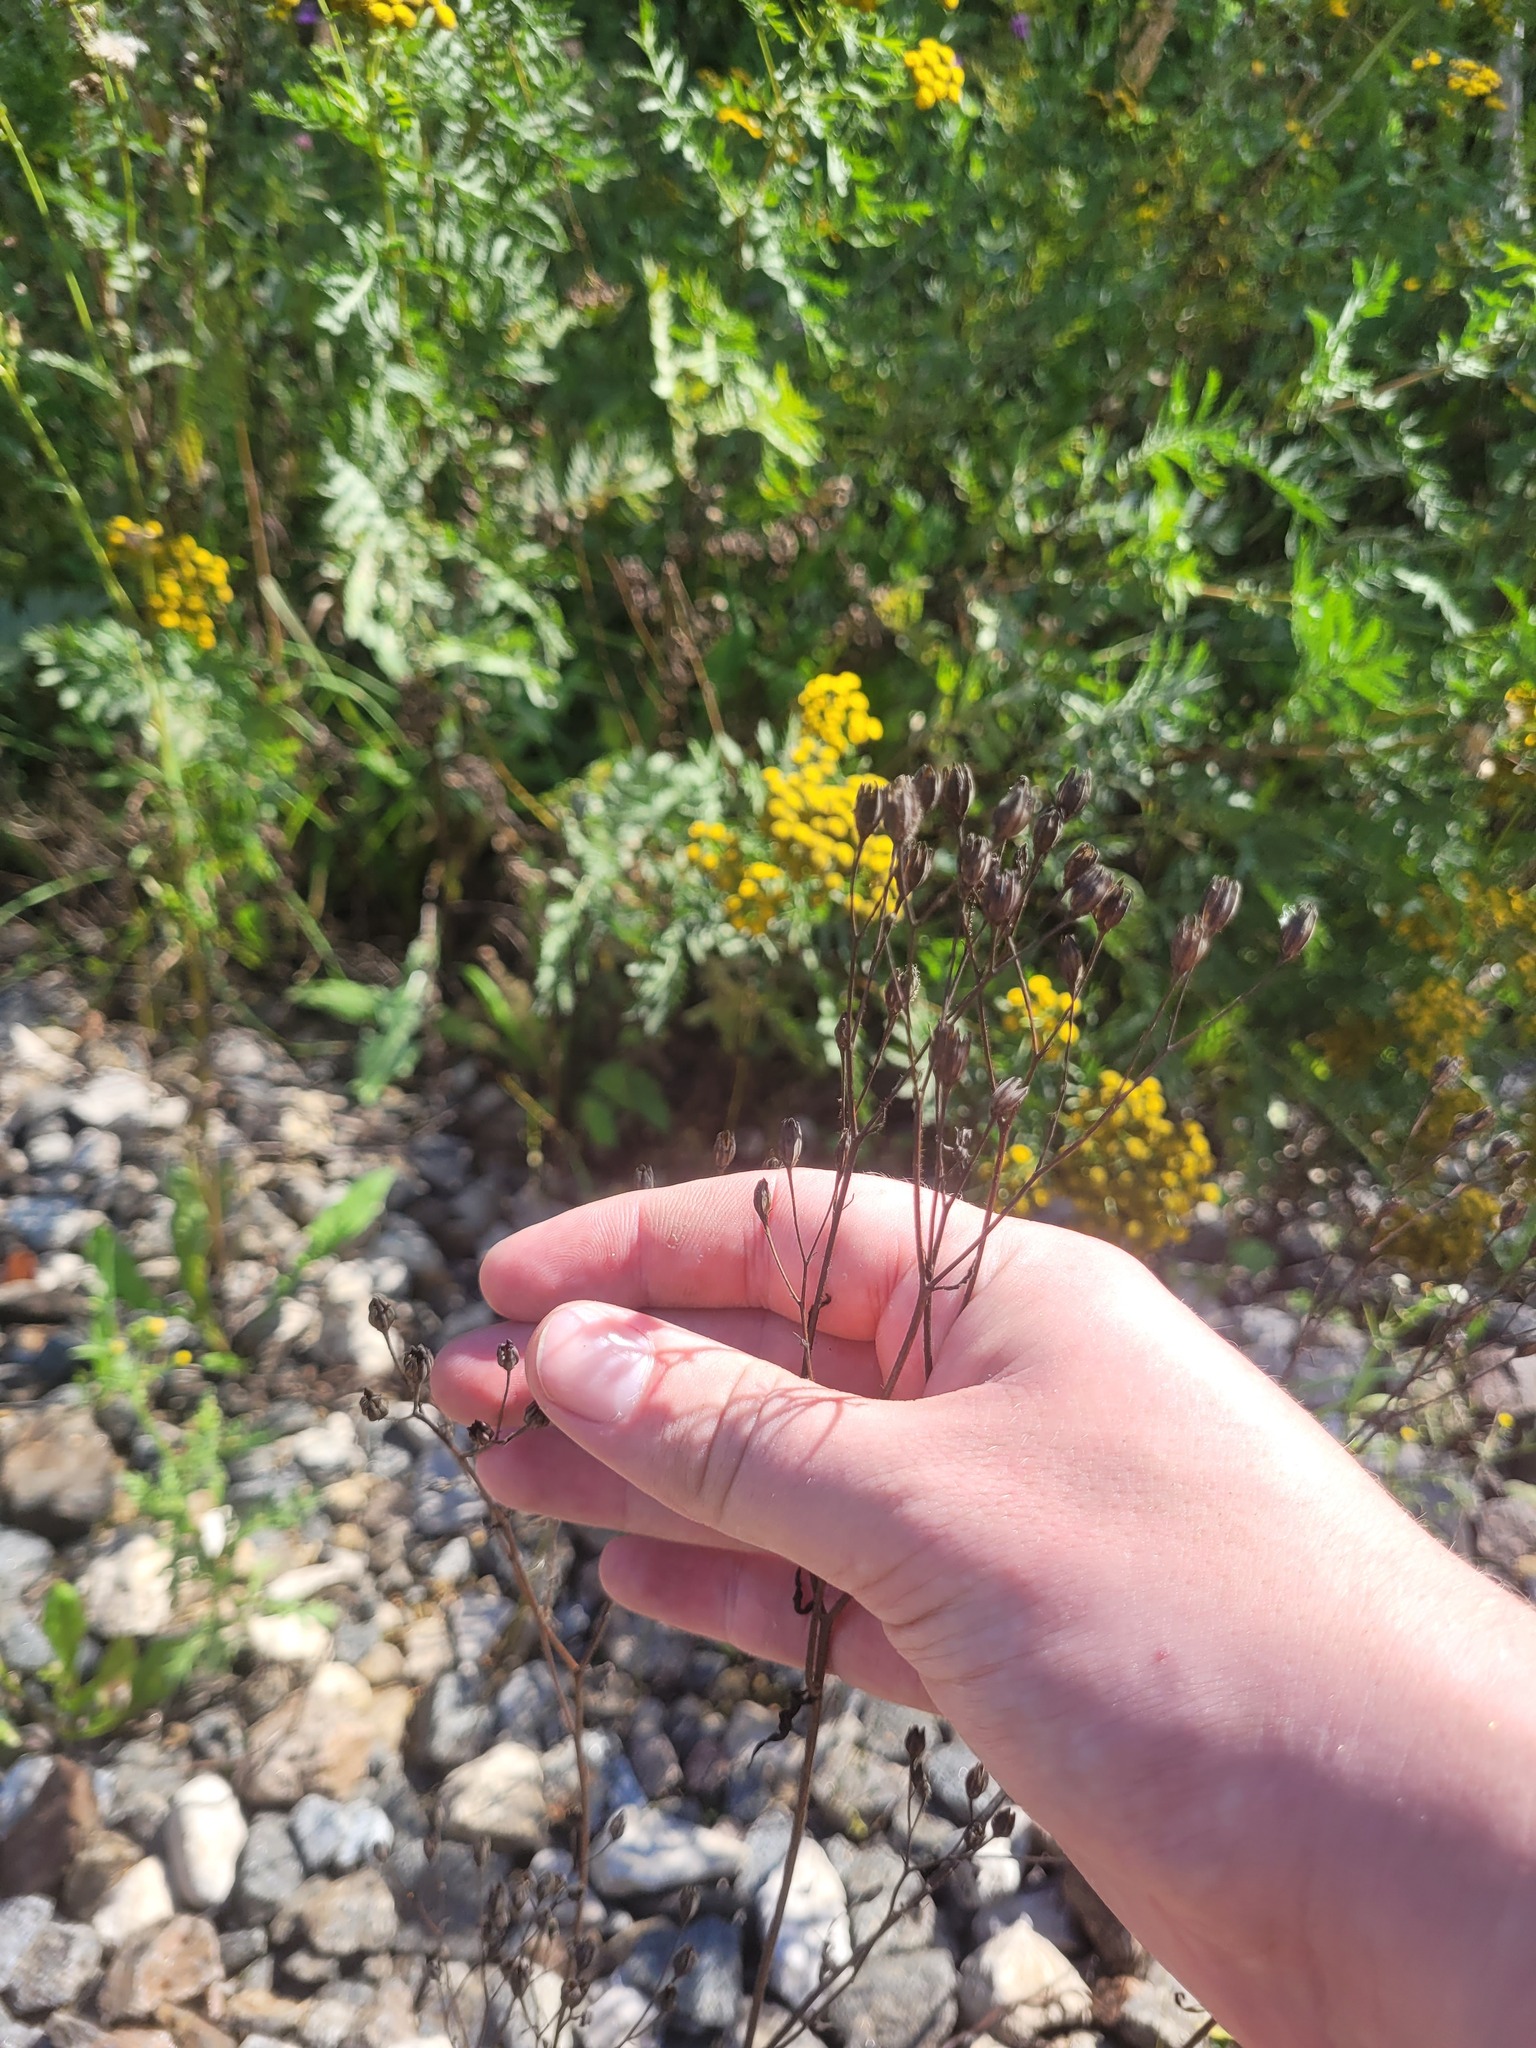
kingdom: Plantae
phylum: Tracheophyta
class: Magnoliopsida
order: Asterales
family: Asteraceae
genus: Lapsana
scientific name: Lapsana communis
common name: Nipplewort
